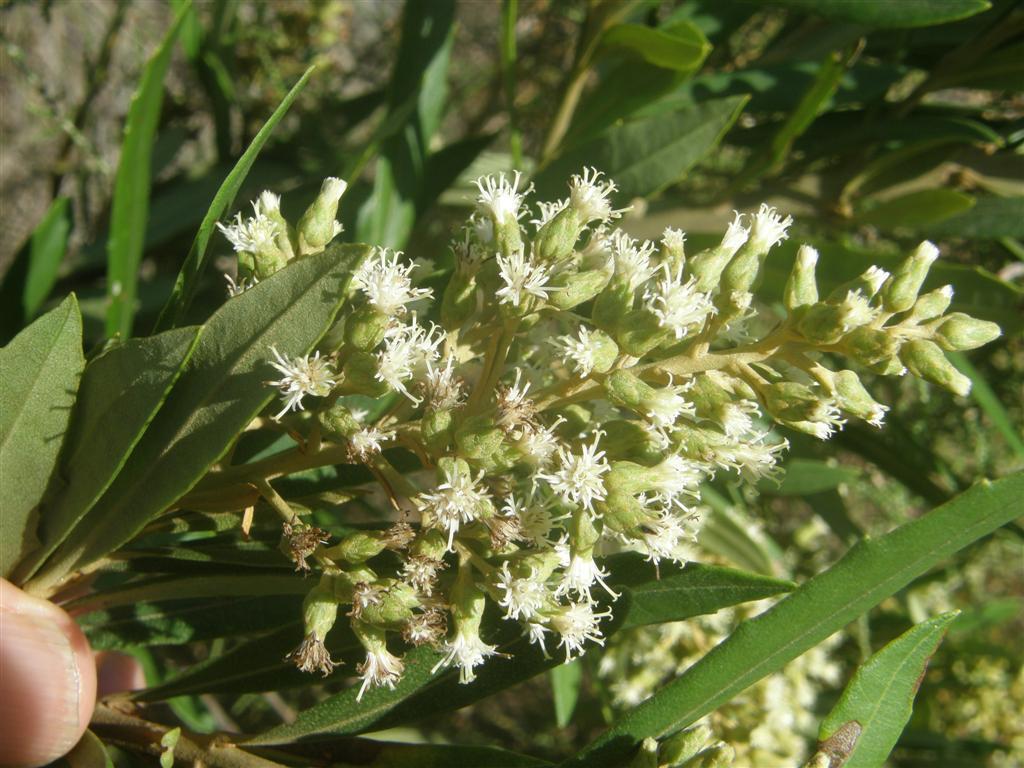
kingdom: Plantae
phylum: Tracheophyta
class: Magnoliopsida
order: Asterales
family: Asteraceae
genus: Brachylaena
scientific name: Brachylaena neriifolia
